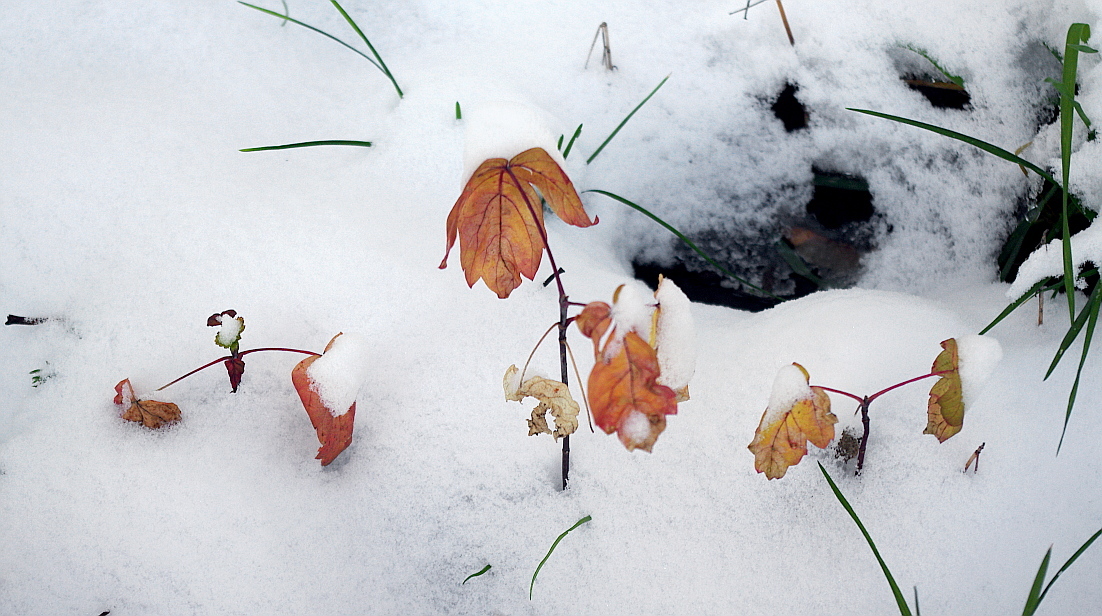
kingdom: Plantae
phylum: Tracheophyta
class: Magnoliopsida
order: Sapindales
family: Sapindaceae
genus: Acer
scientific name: Acer negundo
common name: Ashleaf maple
